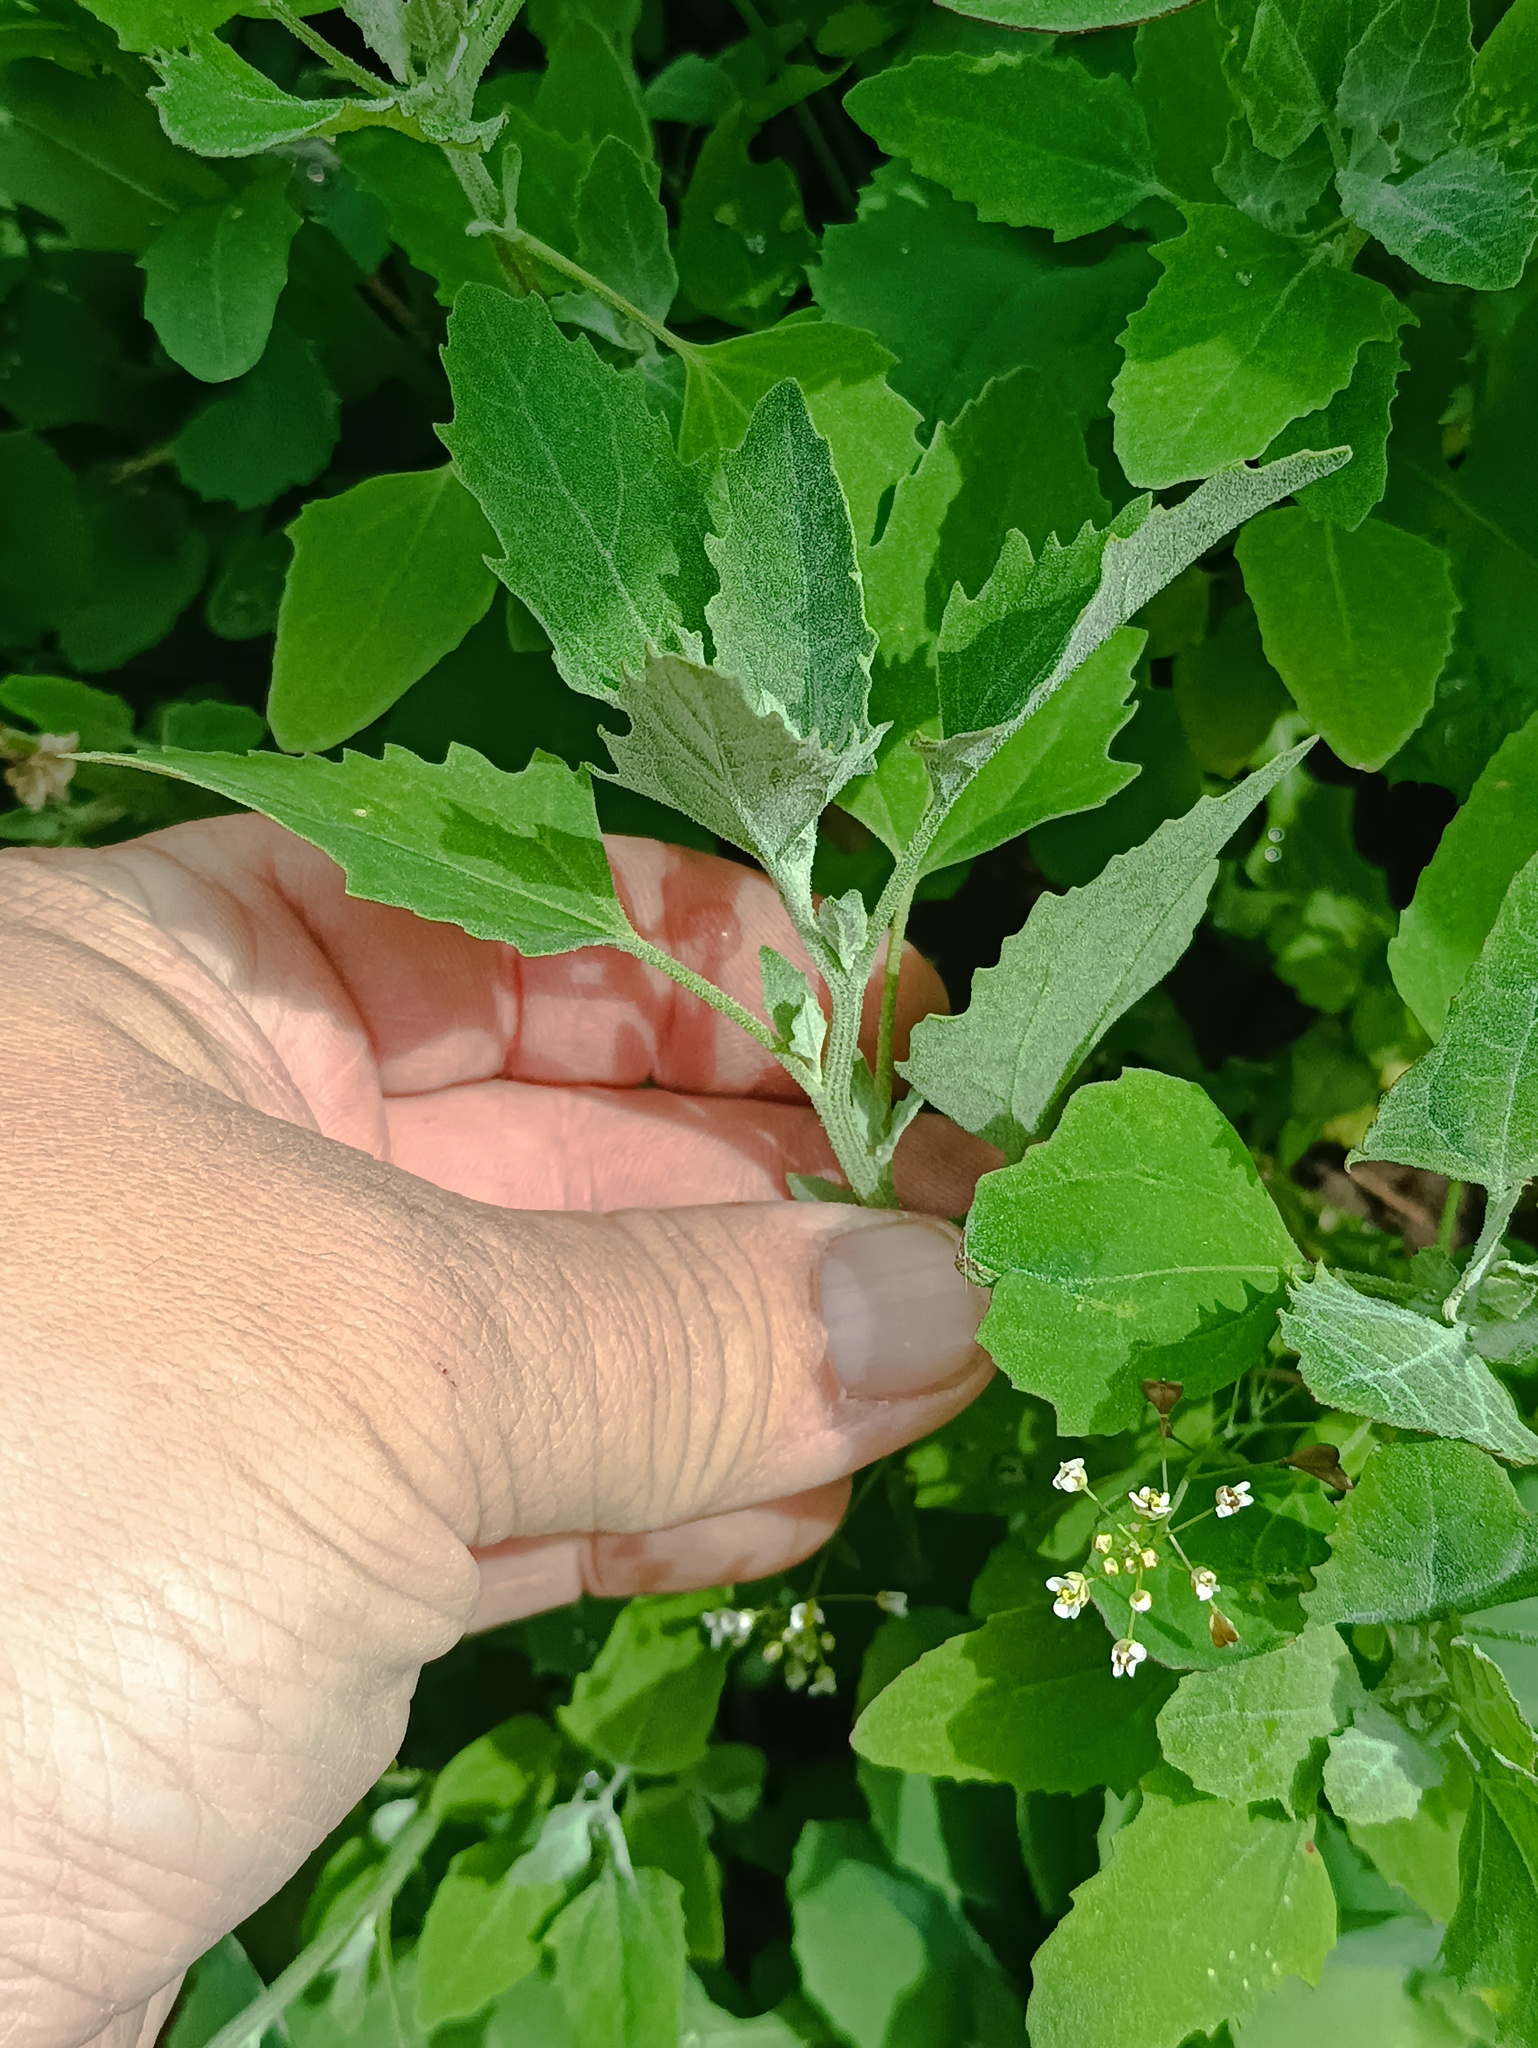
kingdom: Plantae
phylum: Tracheophyta
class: Magnoliopsida
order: Caryophyllales
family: Amaranthaceae
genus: Chenopodium
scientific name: Chenopodium album
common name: Fat-hen
